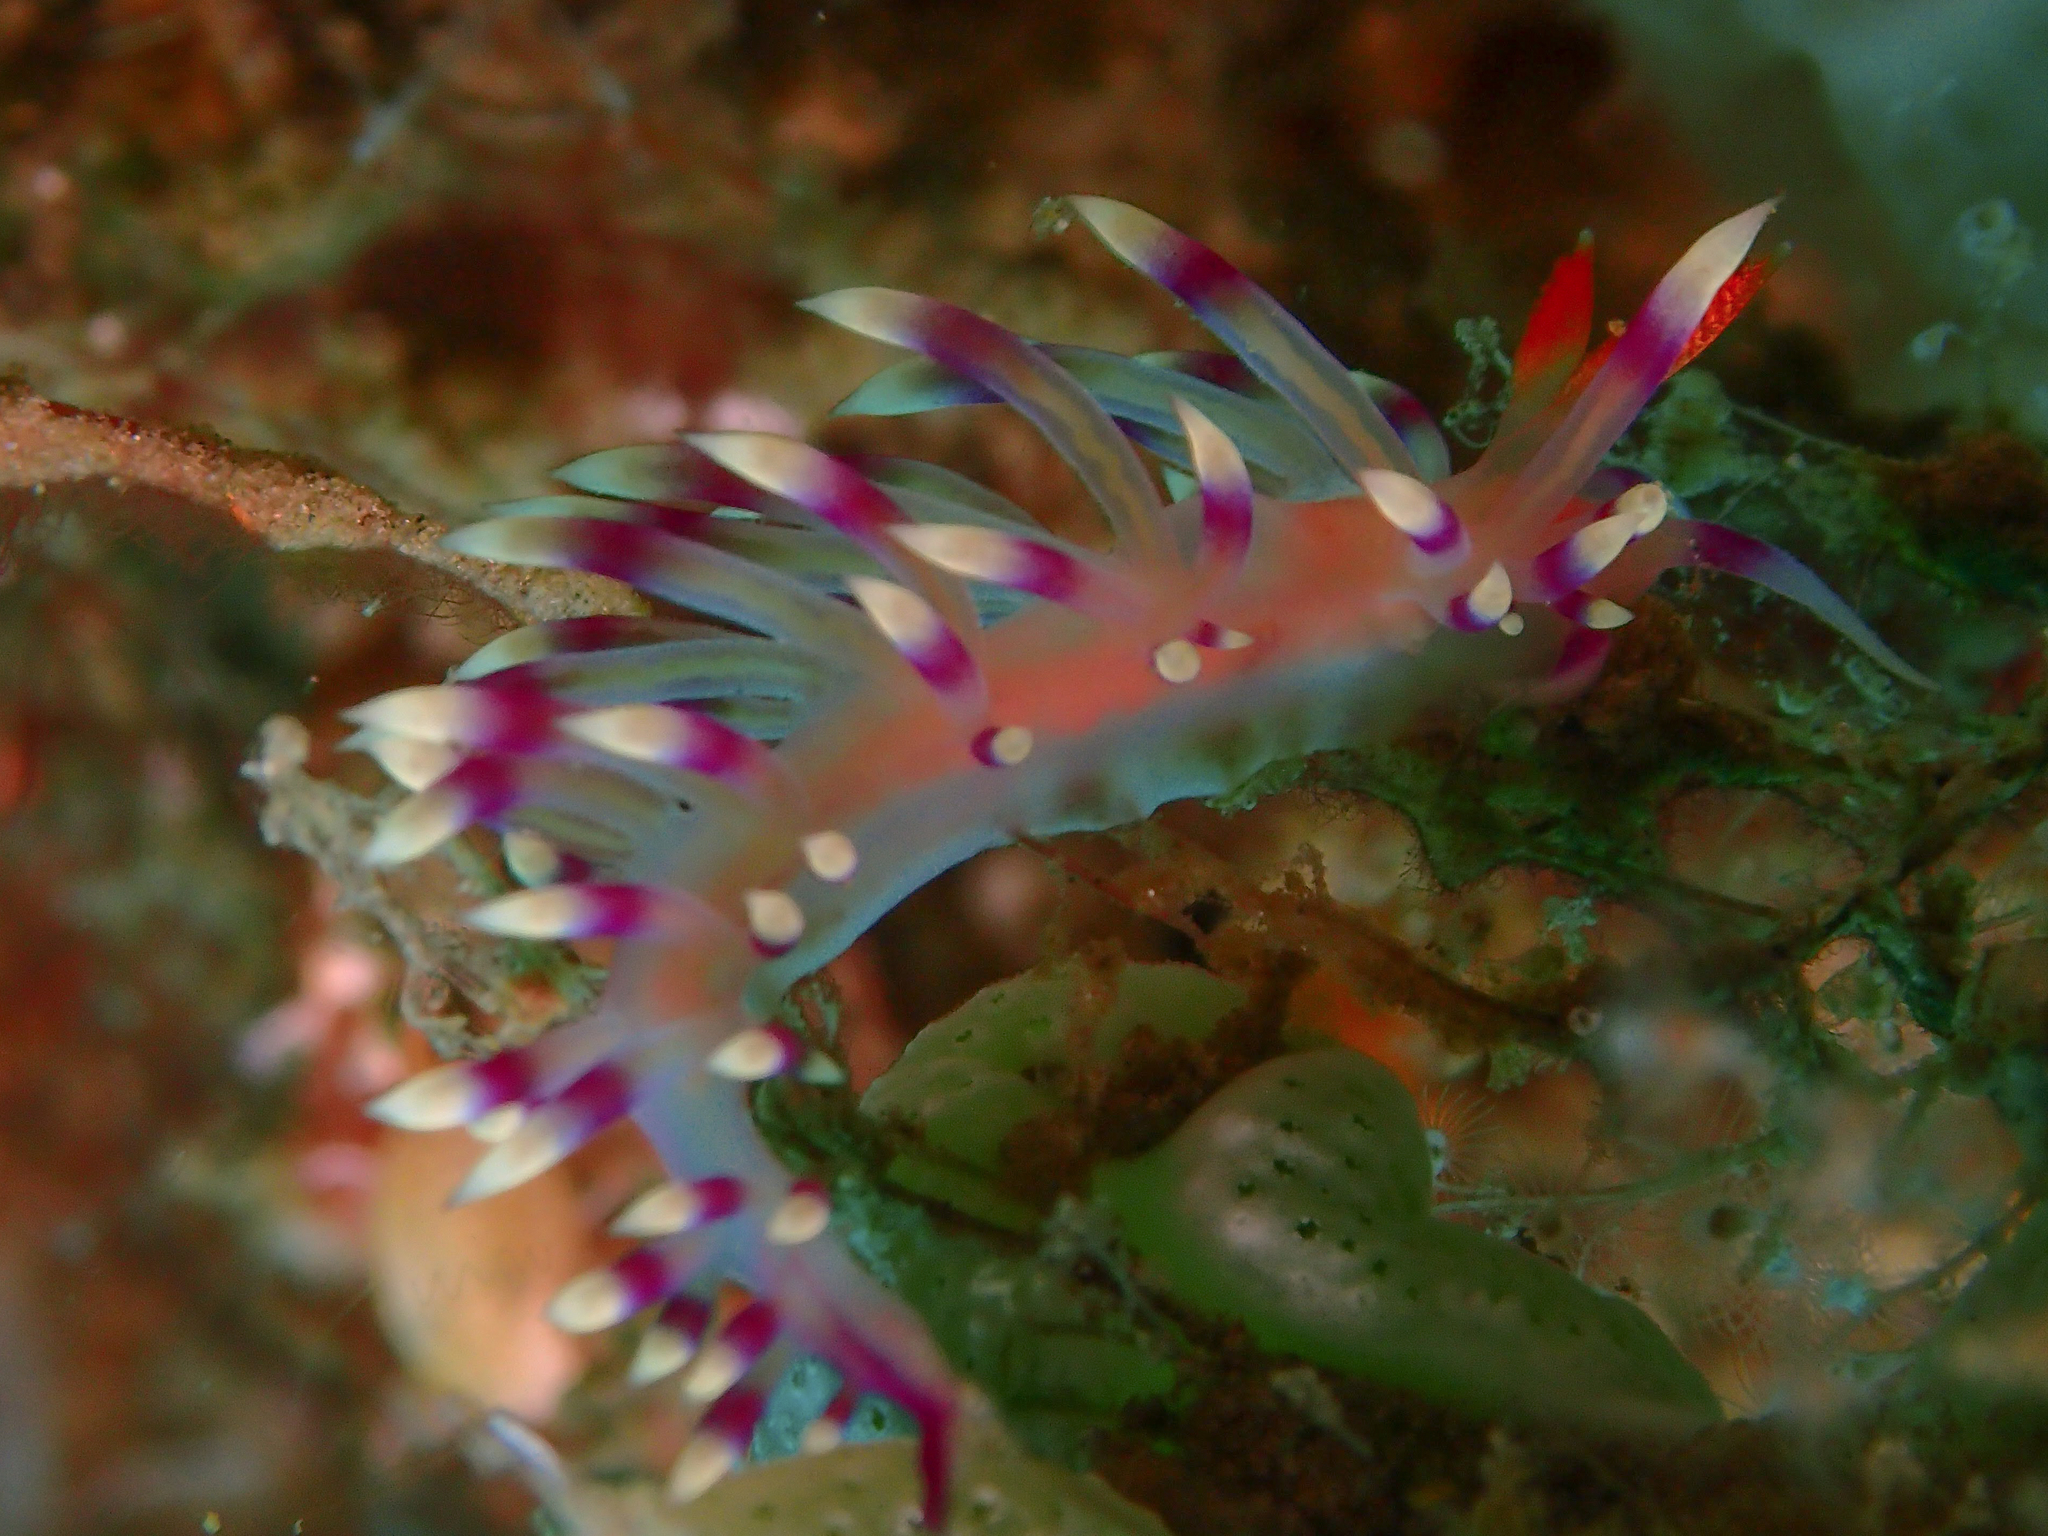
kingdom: Animalia
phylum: Mollusca
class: Gastropoda
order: Nudibranchia
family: Flabellinidae
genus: Coryphellina
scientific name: Coryphellina exoptata
